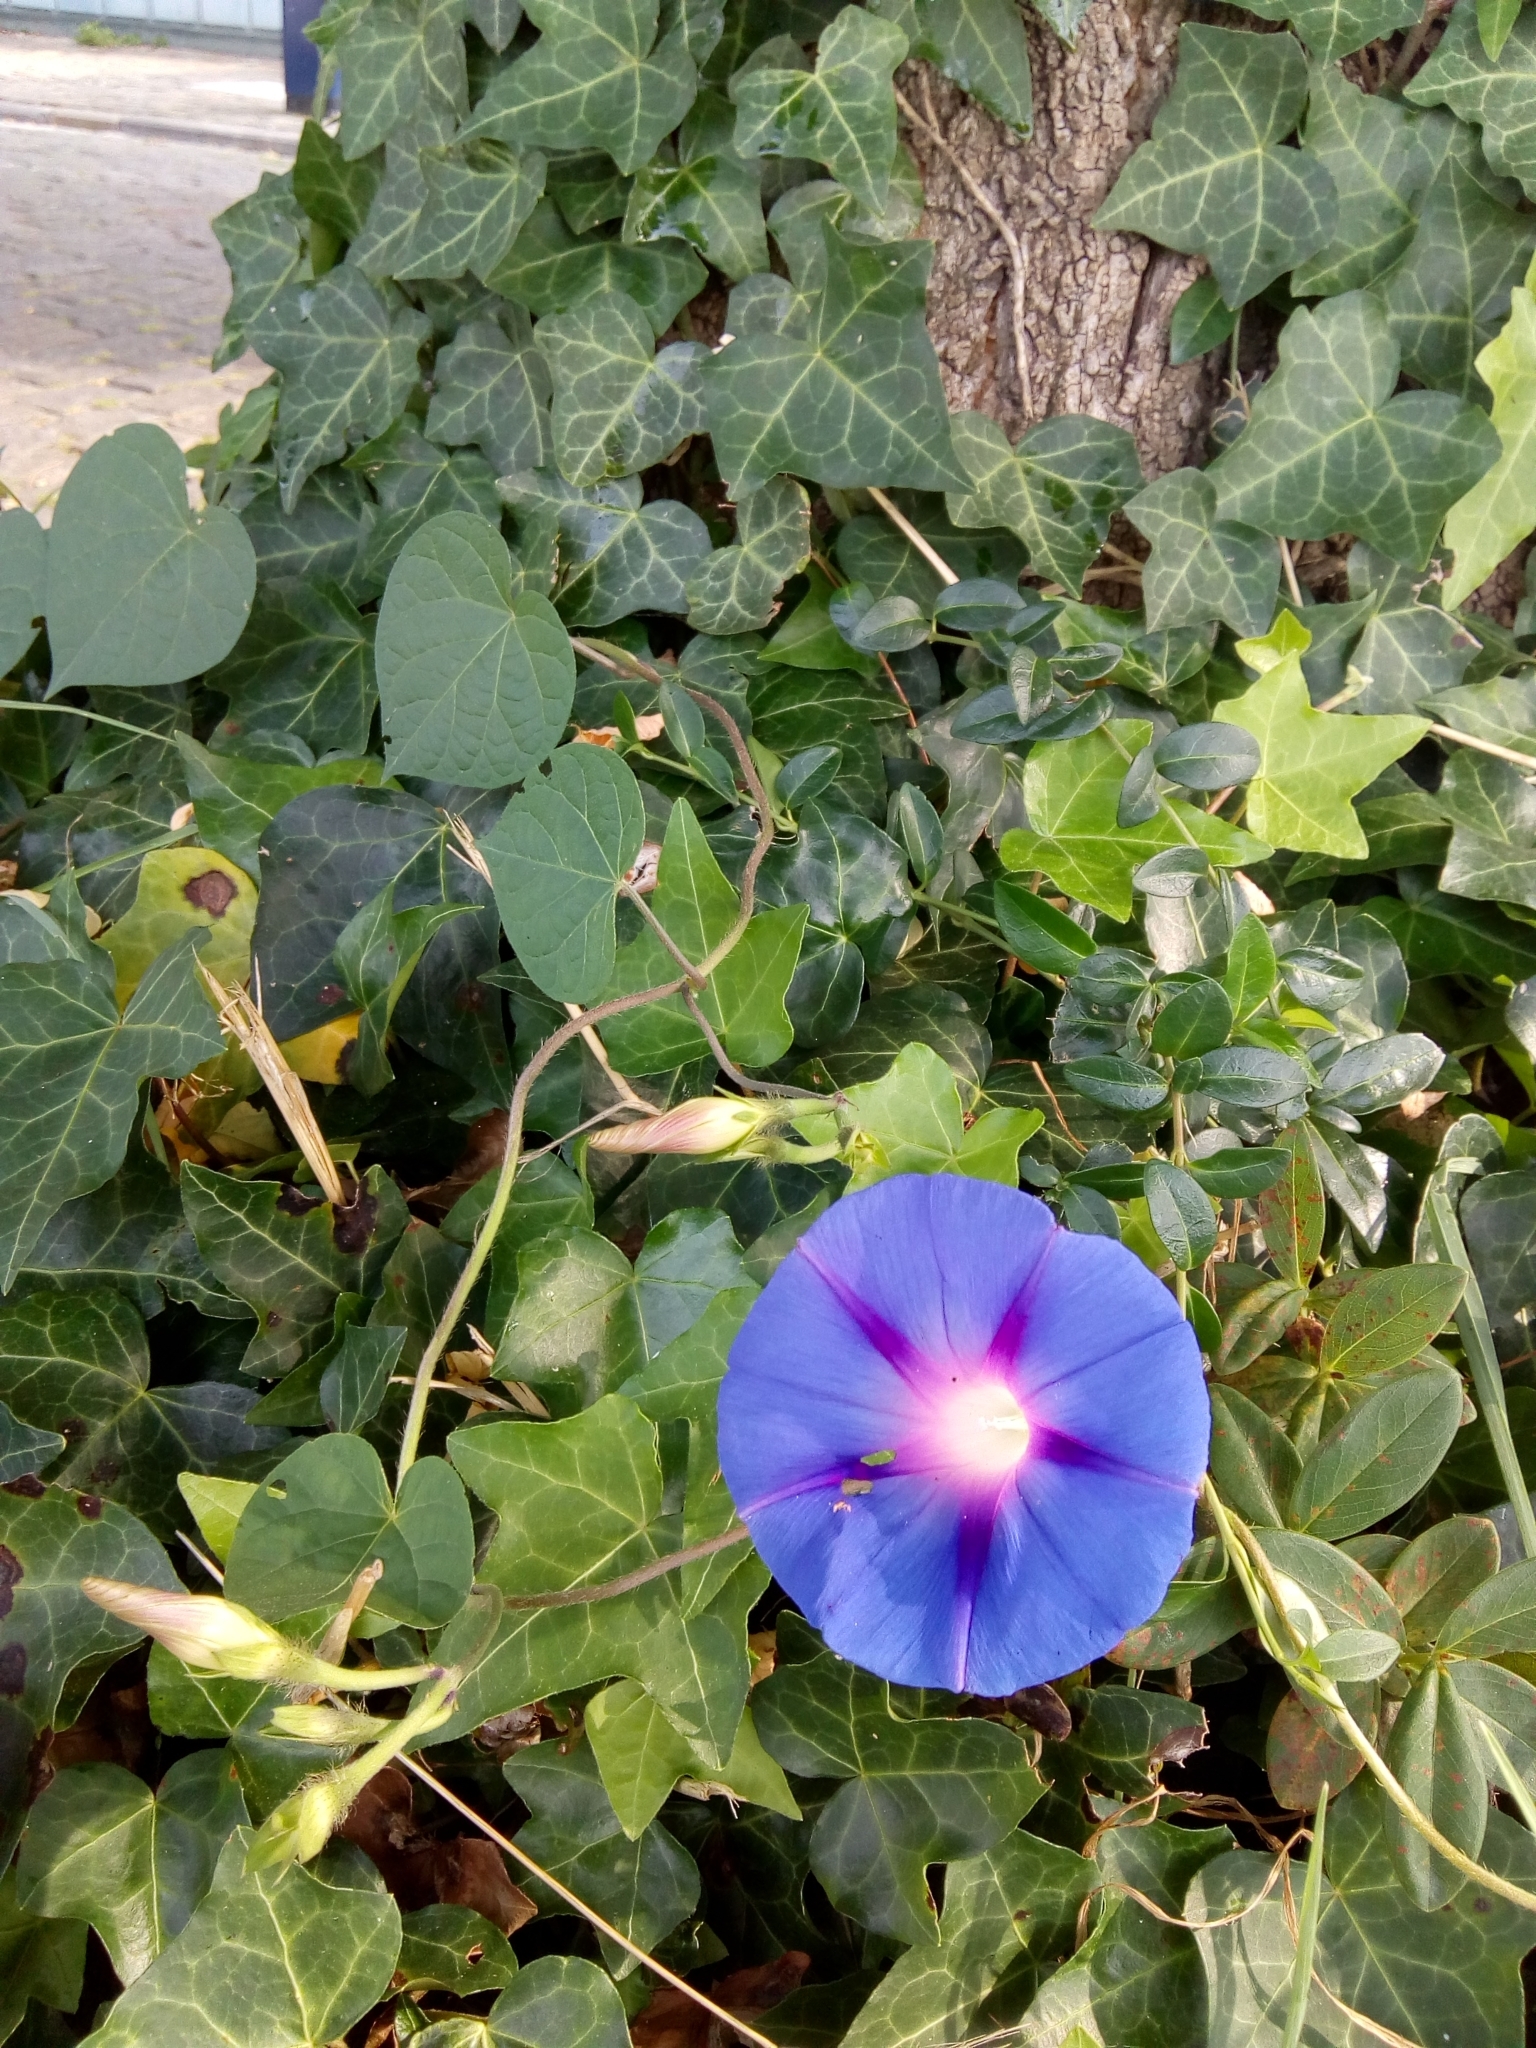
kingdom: Plantae
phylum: Tracheophyta
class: Magnoliopsida
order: Solanales
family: Convolvulaceae
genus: Ipomoea
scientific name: Ipomoea purpurea
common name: Common morning-glory
